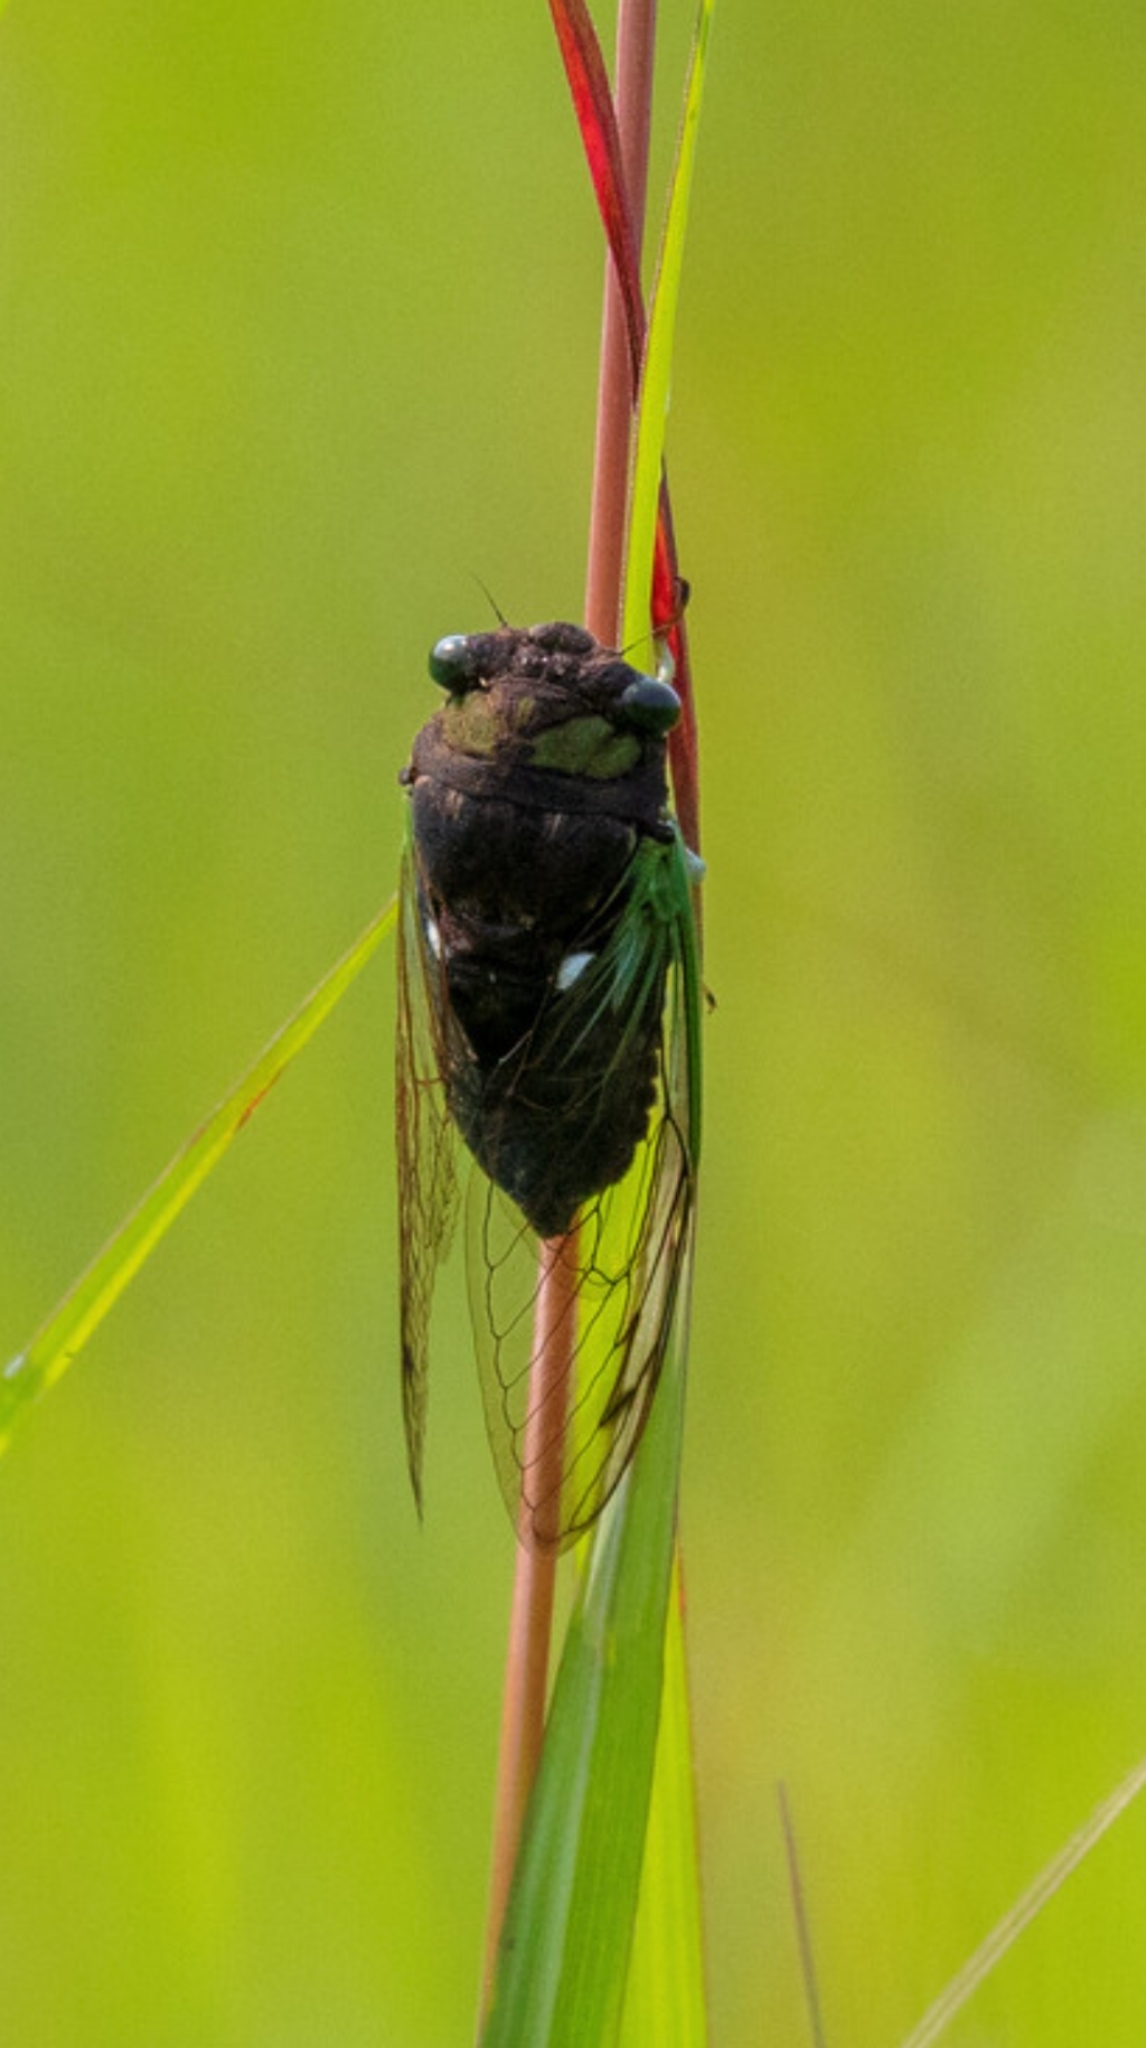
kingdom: Animalia
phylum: Arthropoda
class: Insecta
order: Hemiptera
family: Cicadidae
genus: Neotibicen
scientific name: Neotibicen tibicen
